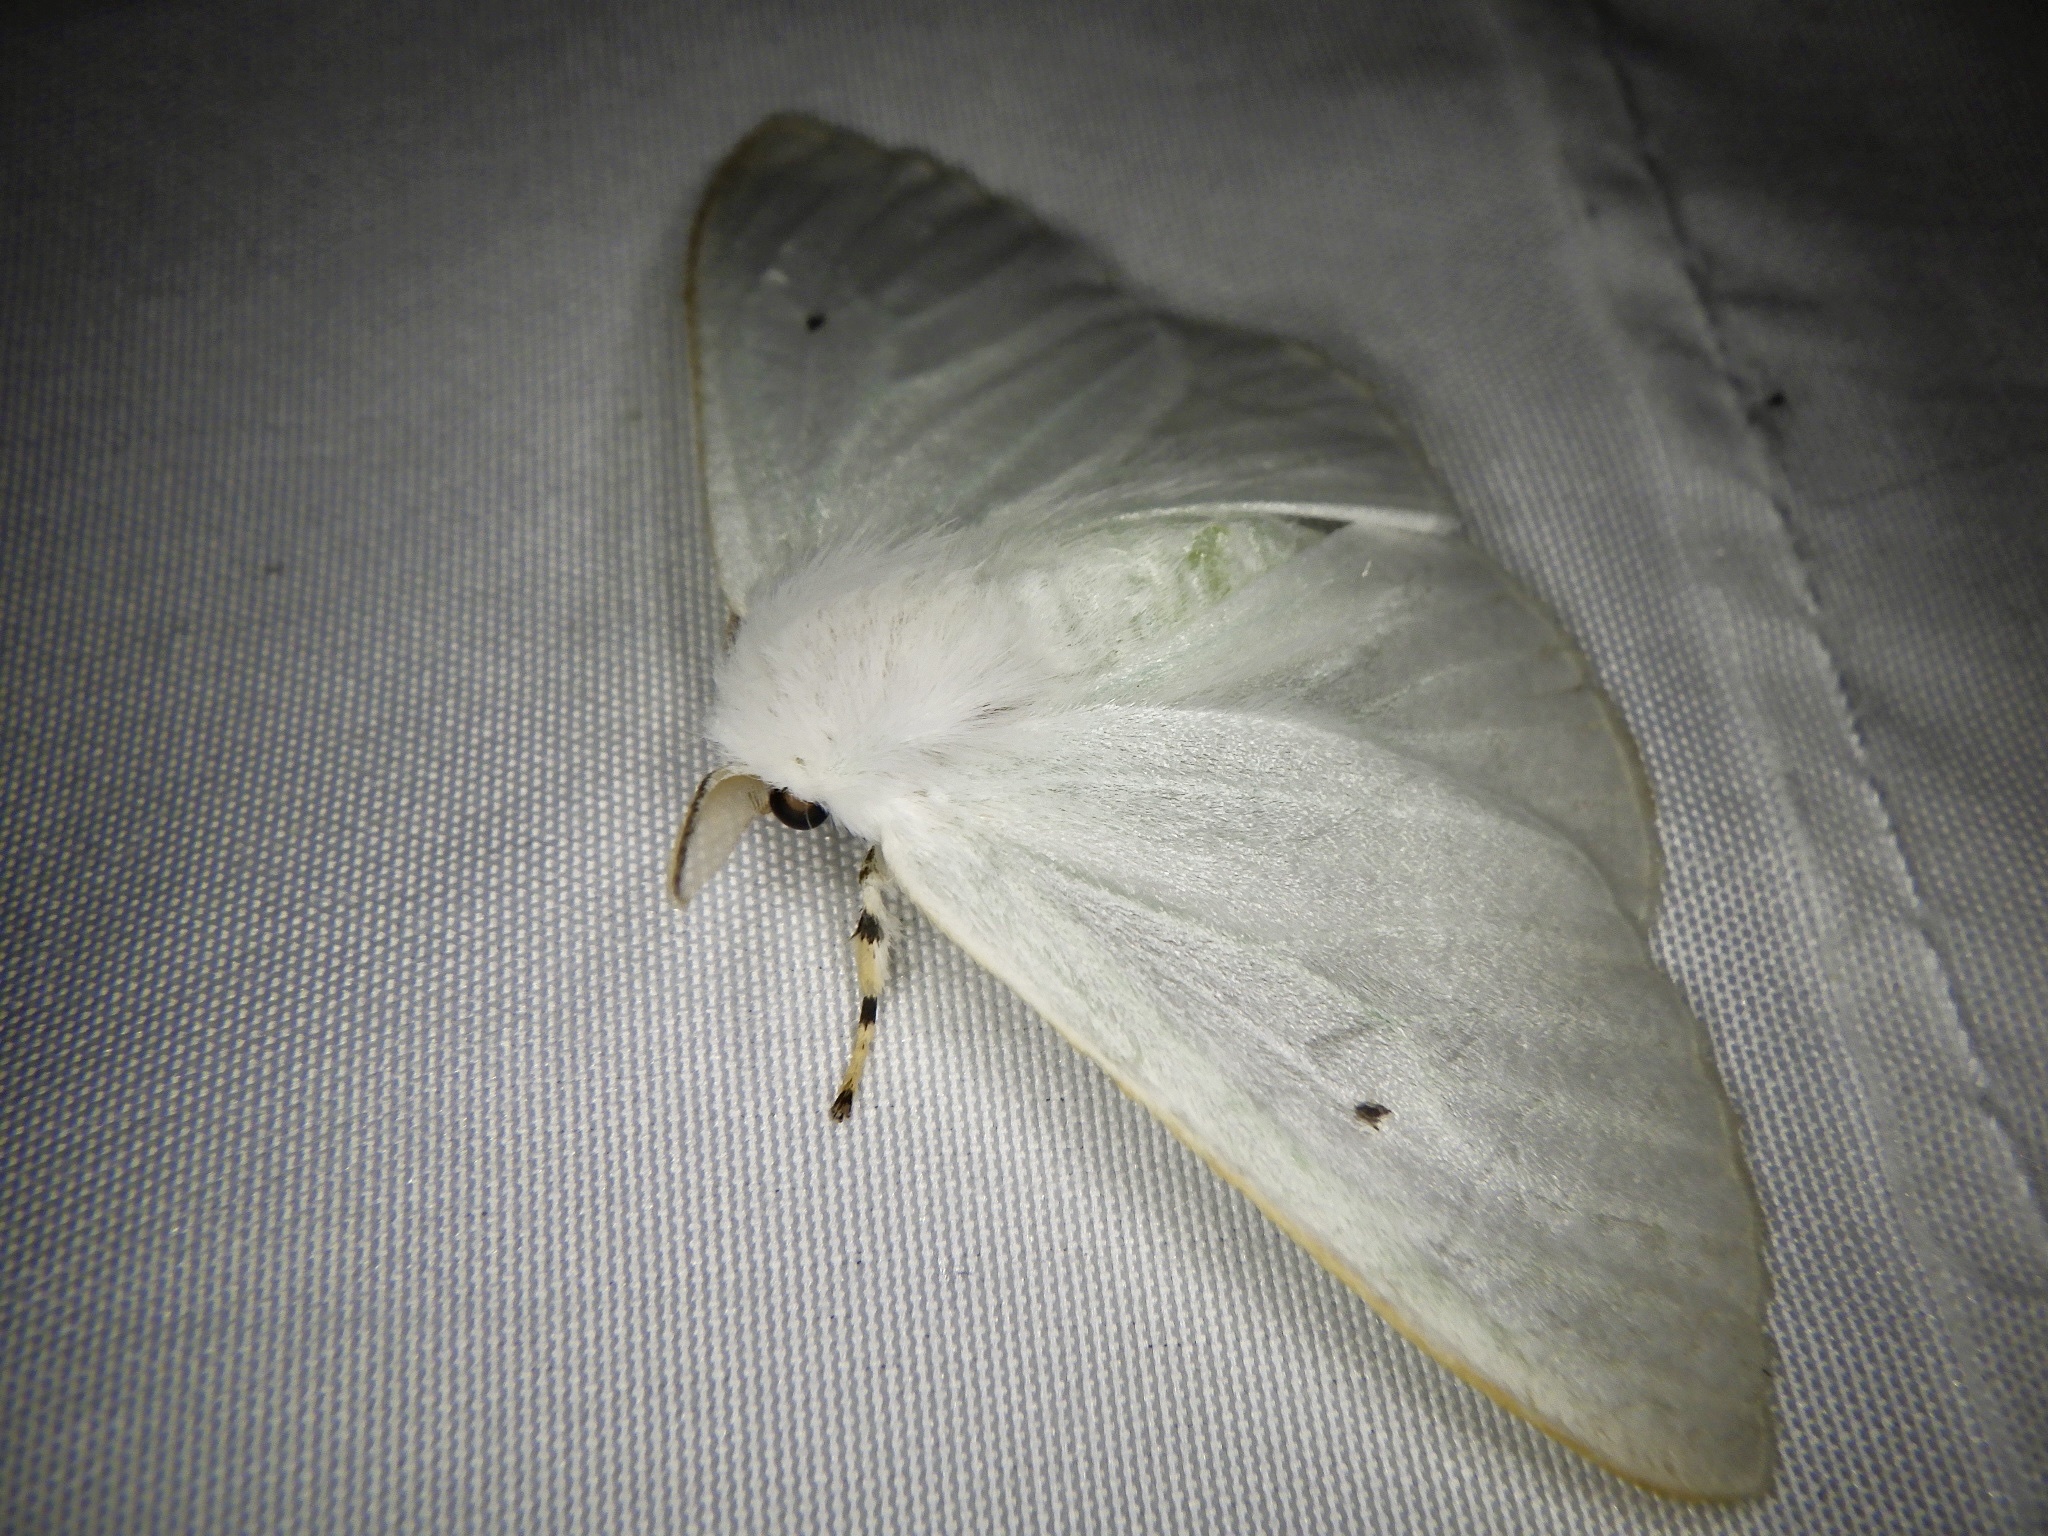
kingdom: Animalia
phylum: Arthropoda
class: Insecta
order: Lepidoptera
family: Erebidae
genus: Arctornis
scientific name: Arctornis
